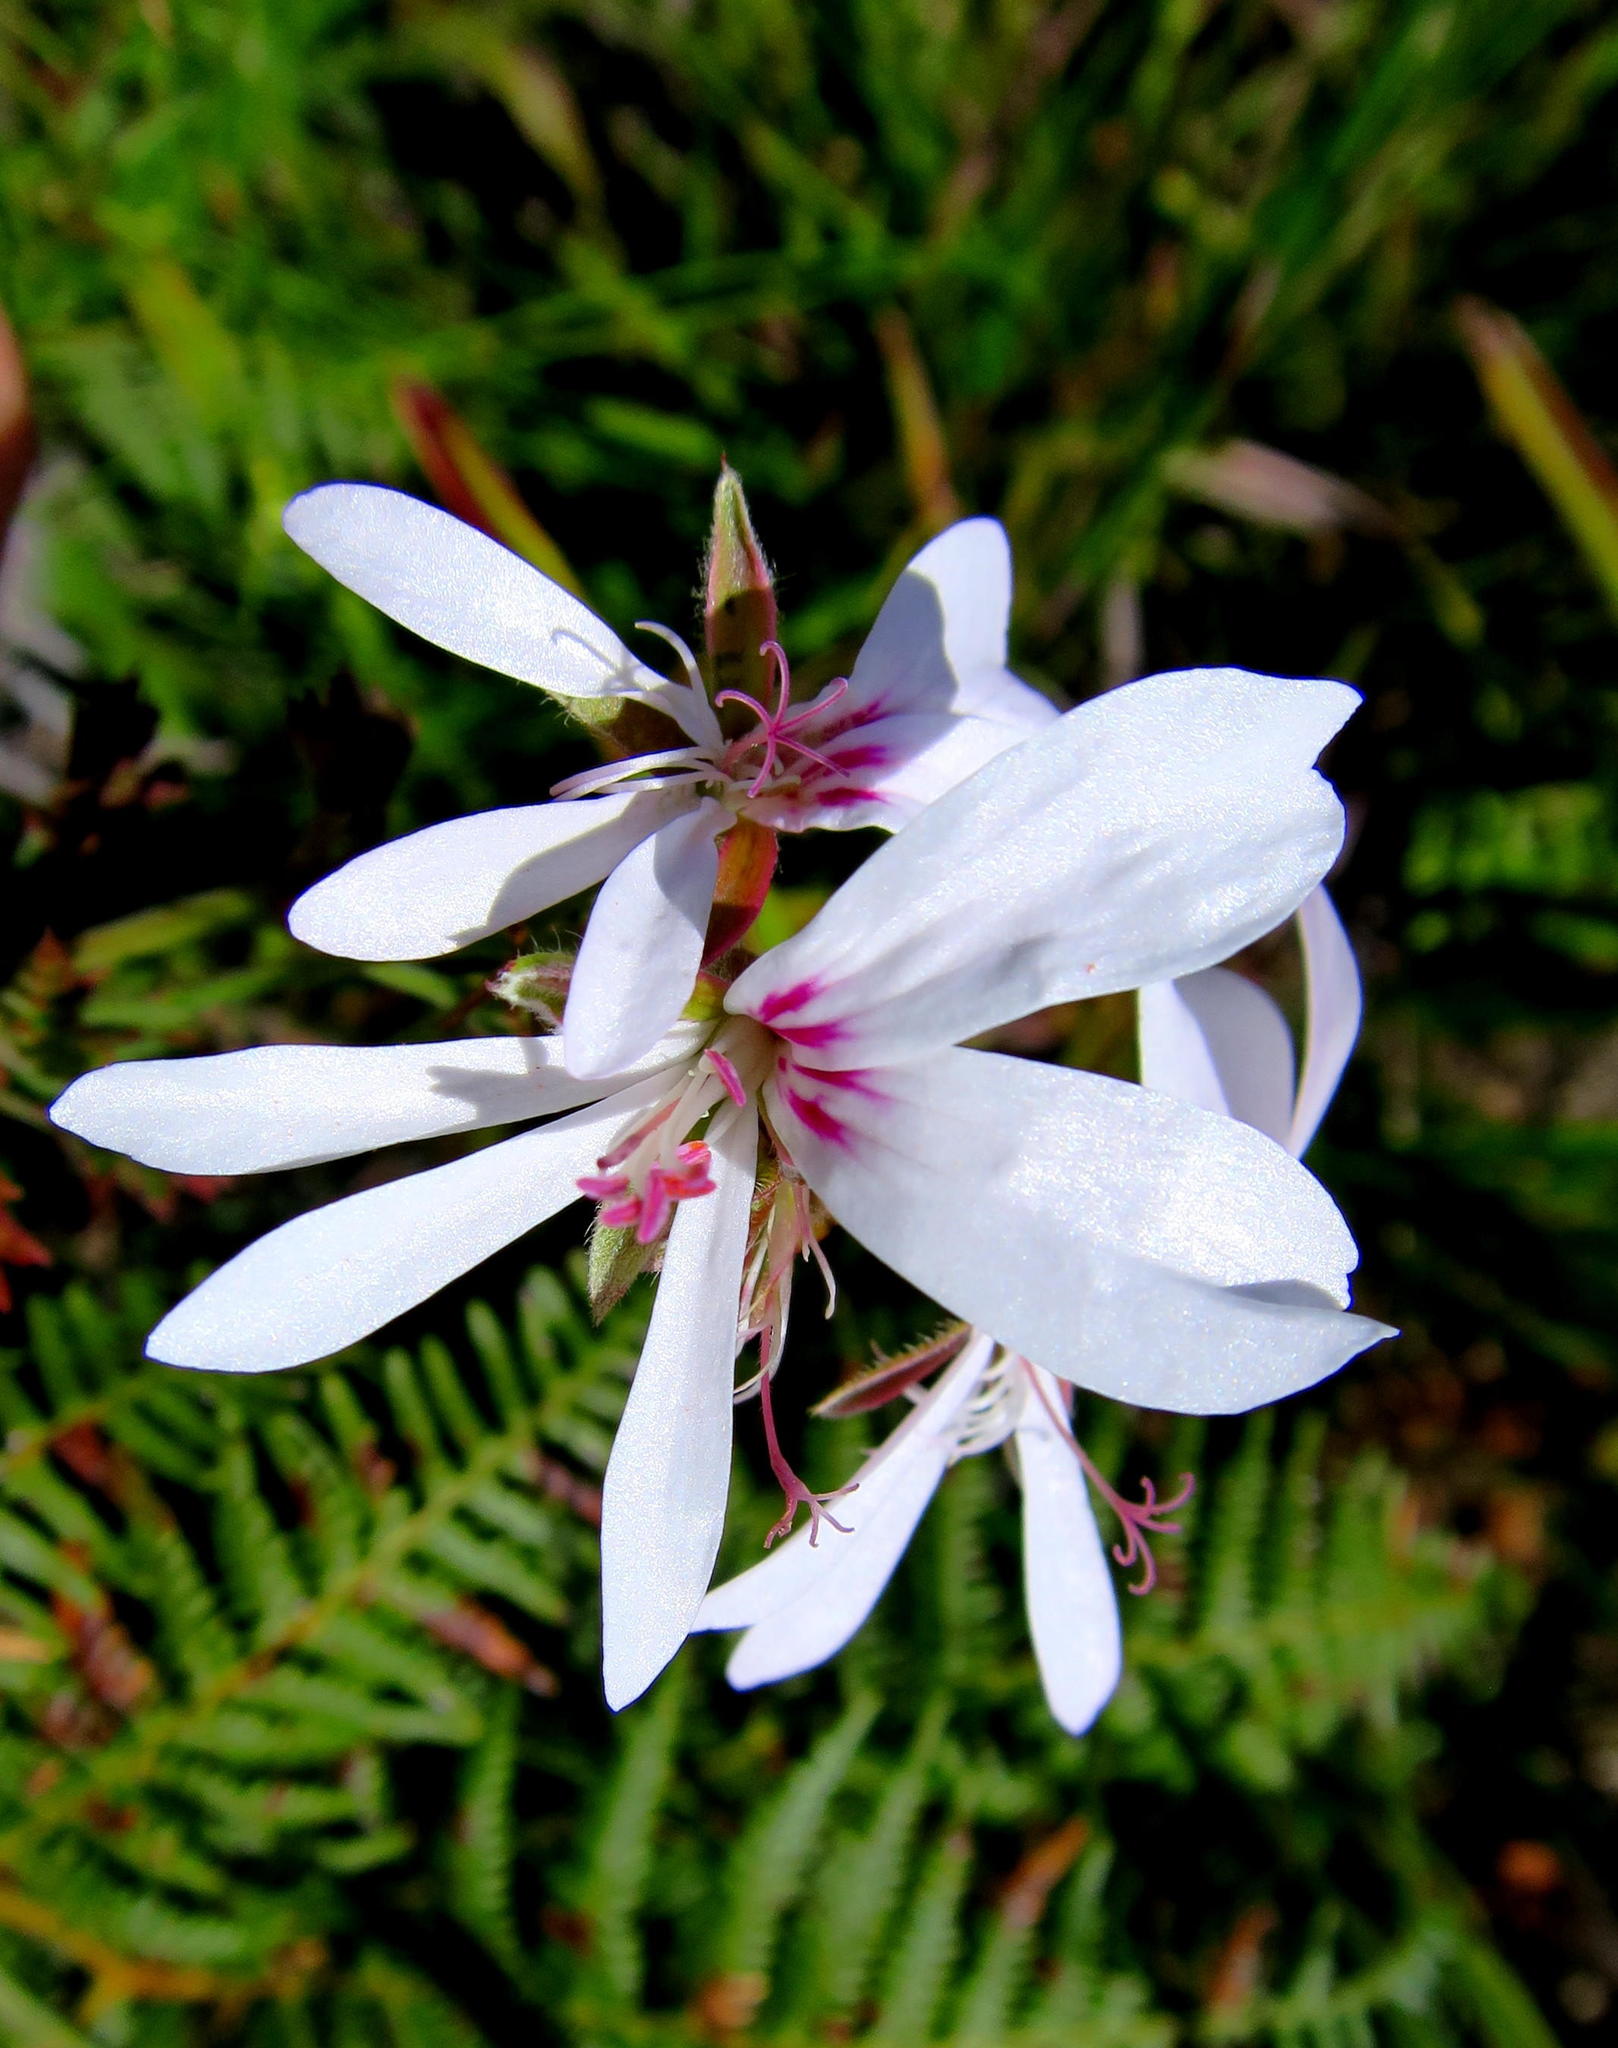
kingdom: Plantae
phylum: Tracheophyta
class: Magnoliopsida
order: Geraniales
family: Geraniaceae
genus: Pelargonium
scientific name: Pelargonium ternatum
